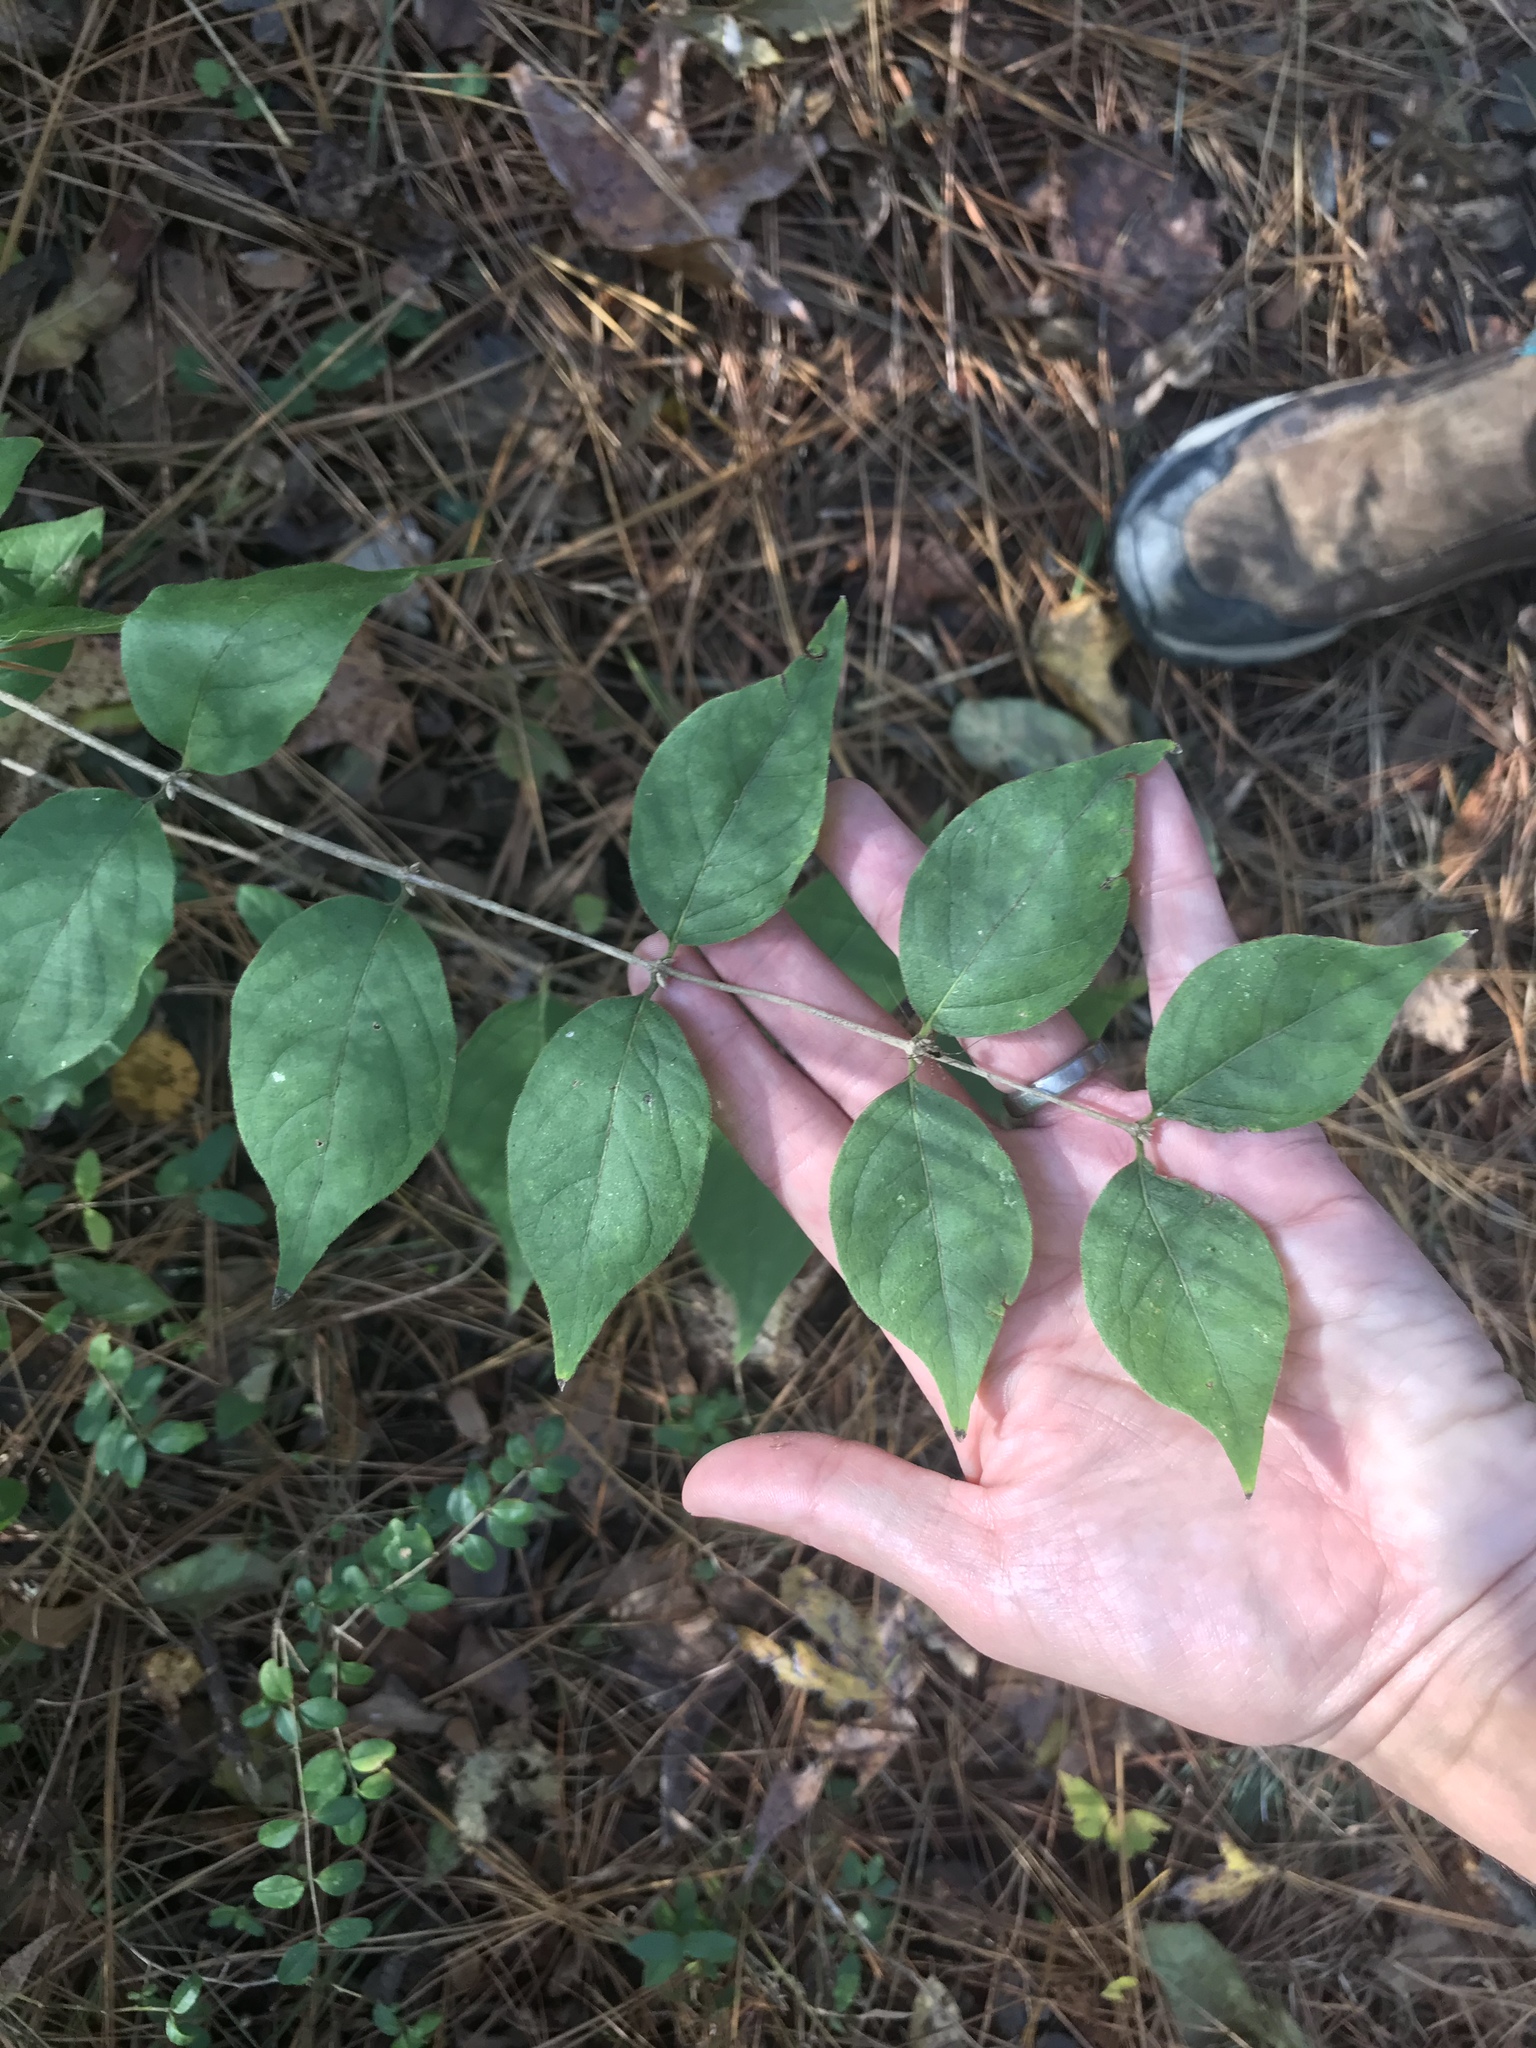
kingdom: Plantae
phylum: Tracheophyta
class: Magnoliopsida
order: Dipsacales
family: Caprifoliaceae
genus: Lonicera
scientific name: Lonicera maackii
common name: Amur honeysuckle
